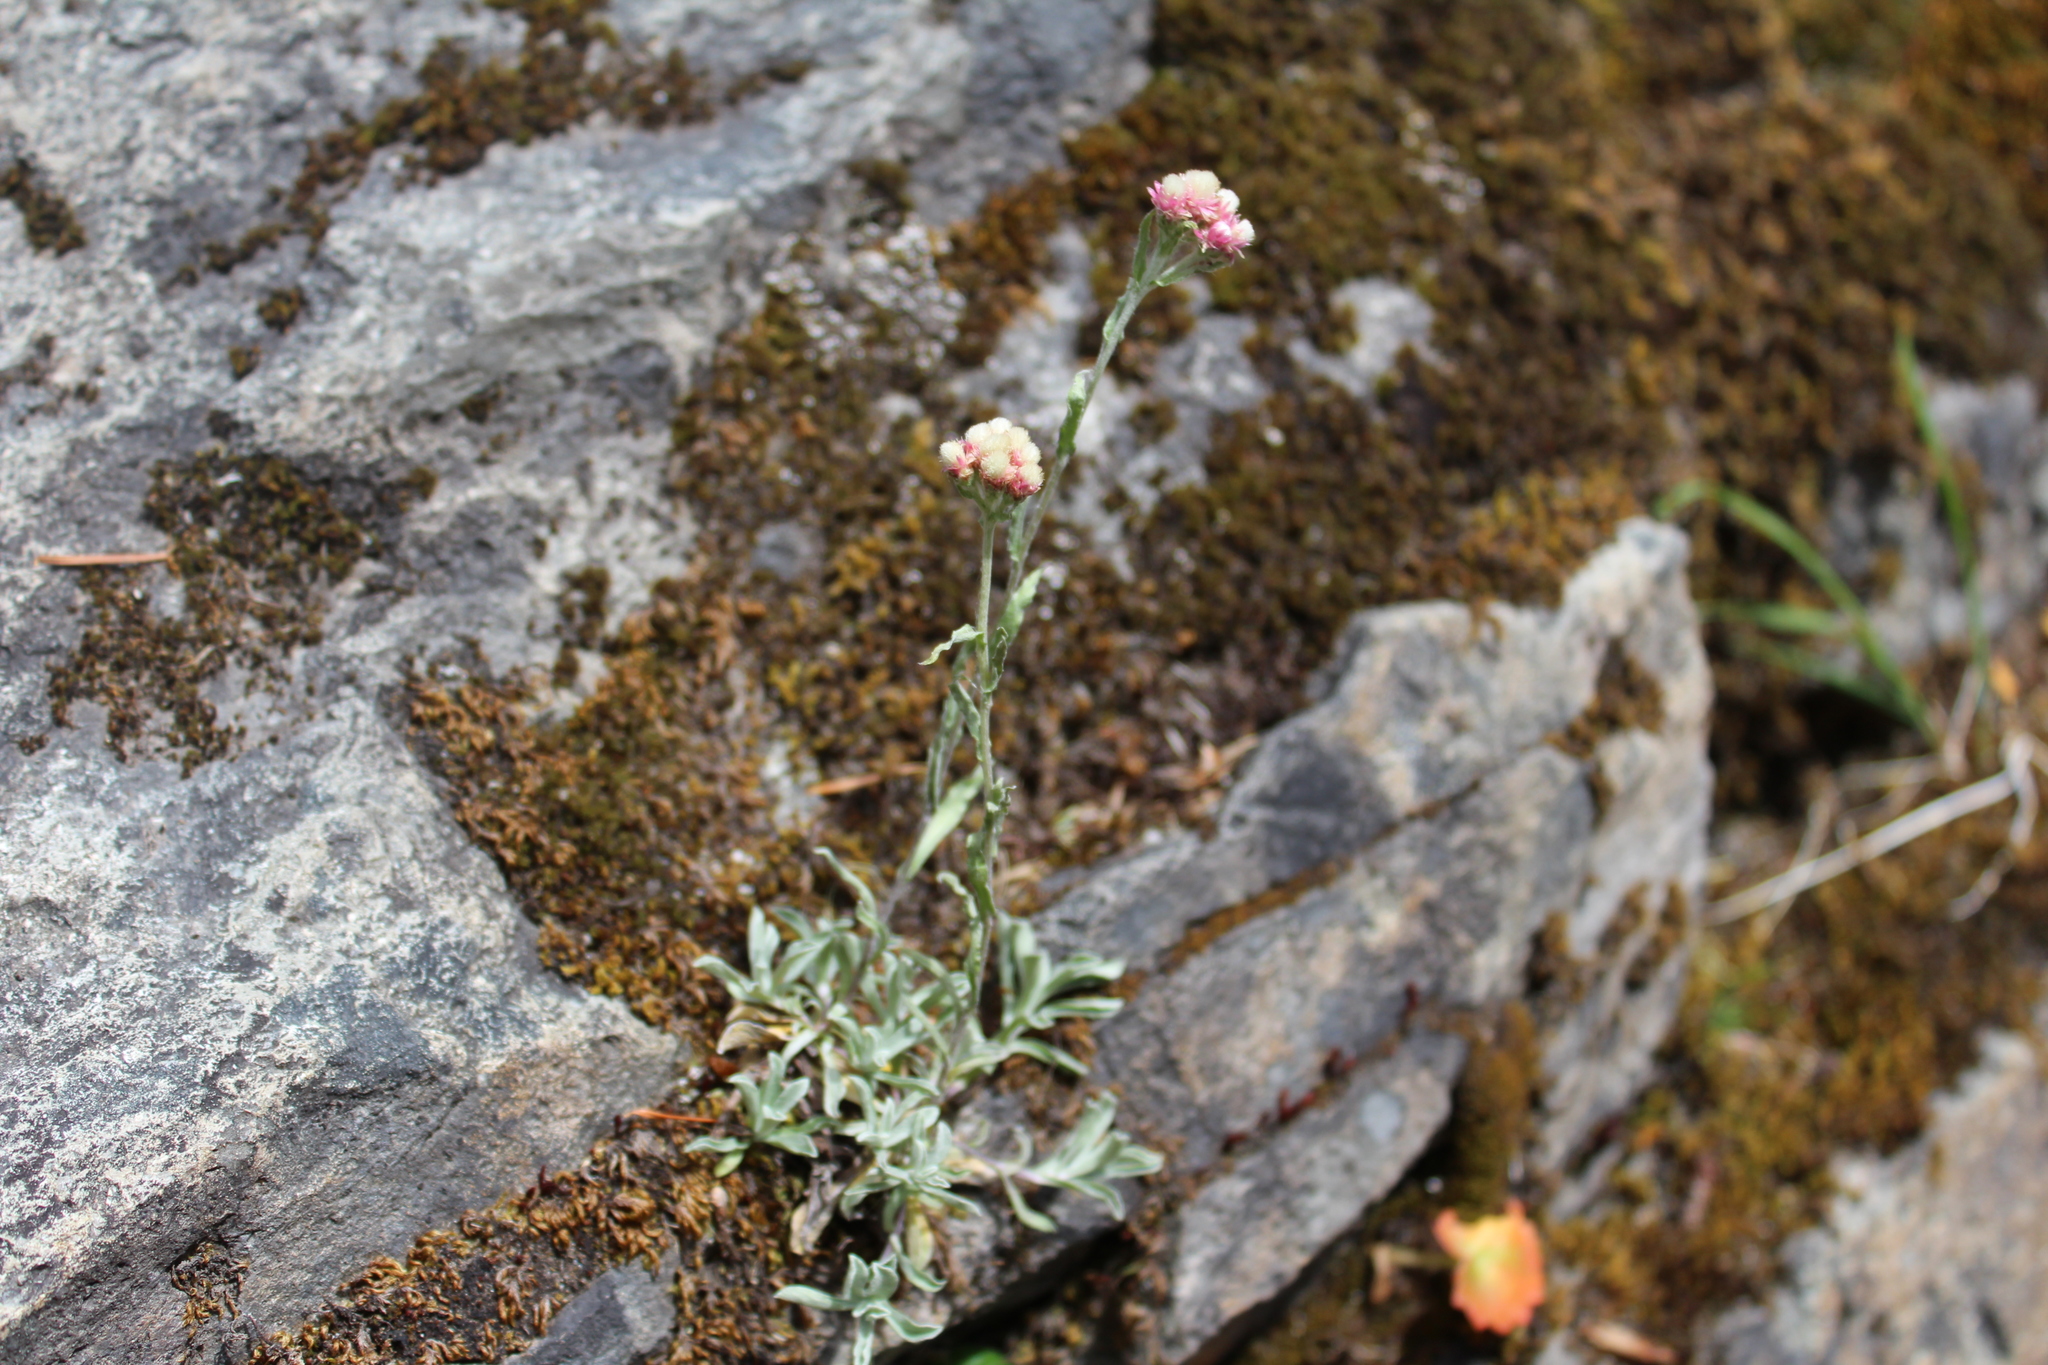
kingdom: Plantae
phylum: Tracheophyta
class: Magnoliopsida
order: Asterales
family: Asteraceae
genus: Antennaria
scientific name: Antennaria rosea
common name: Rosy pussytoes
